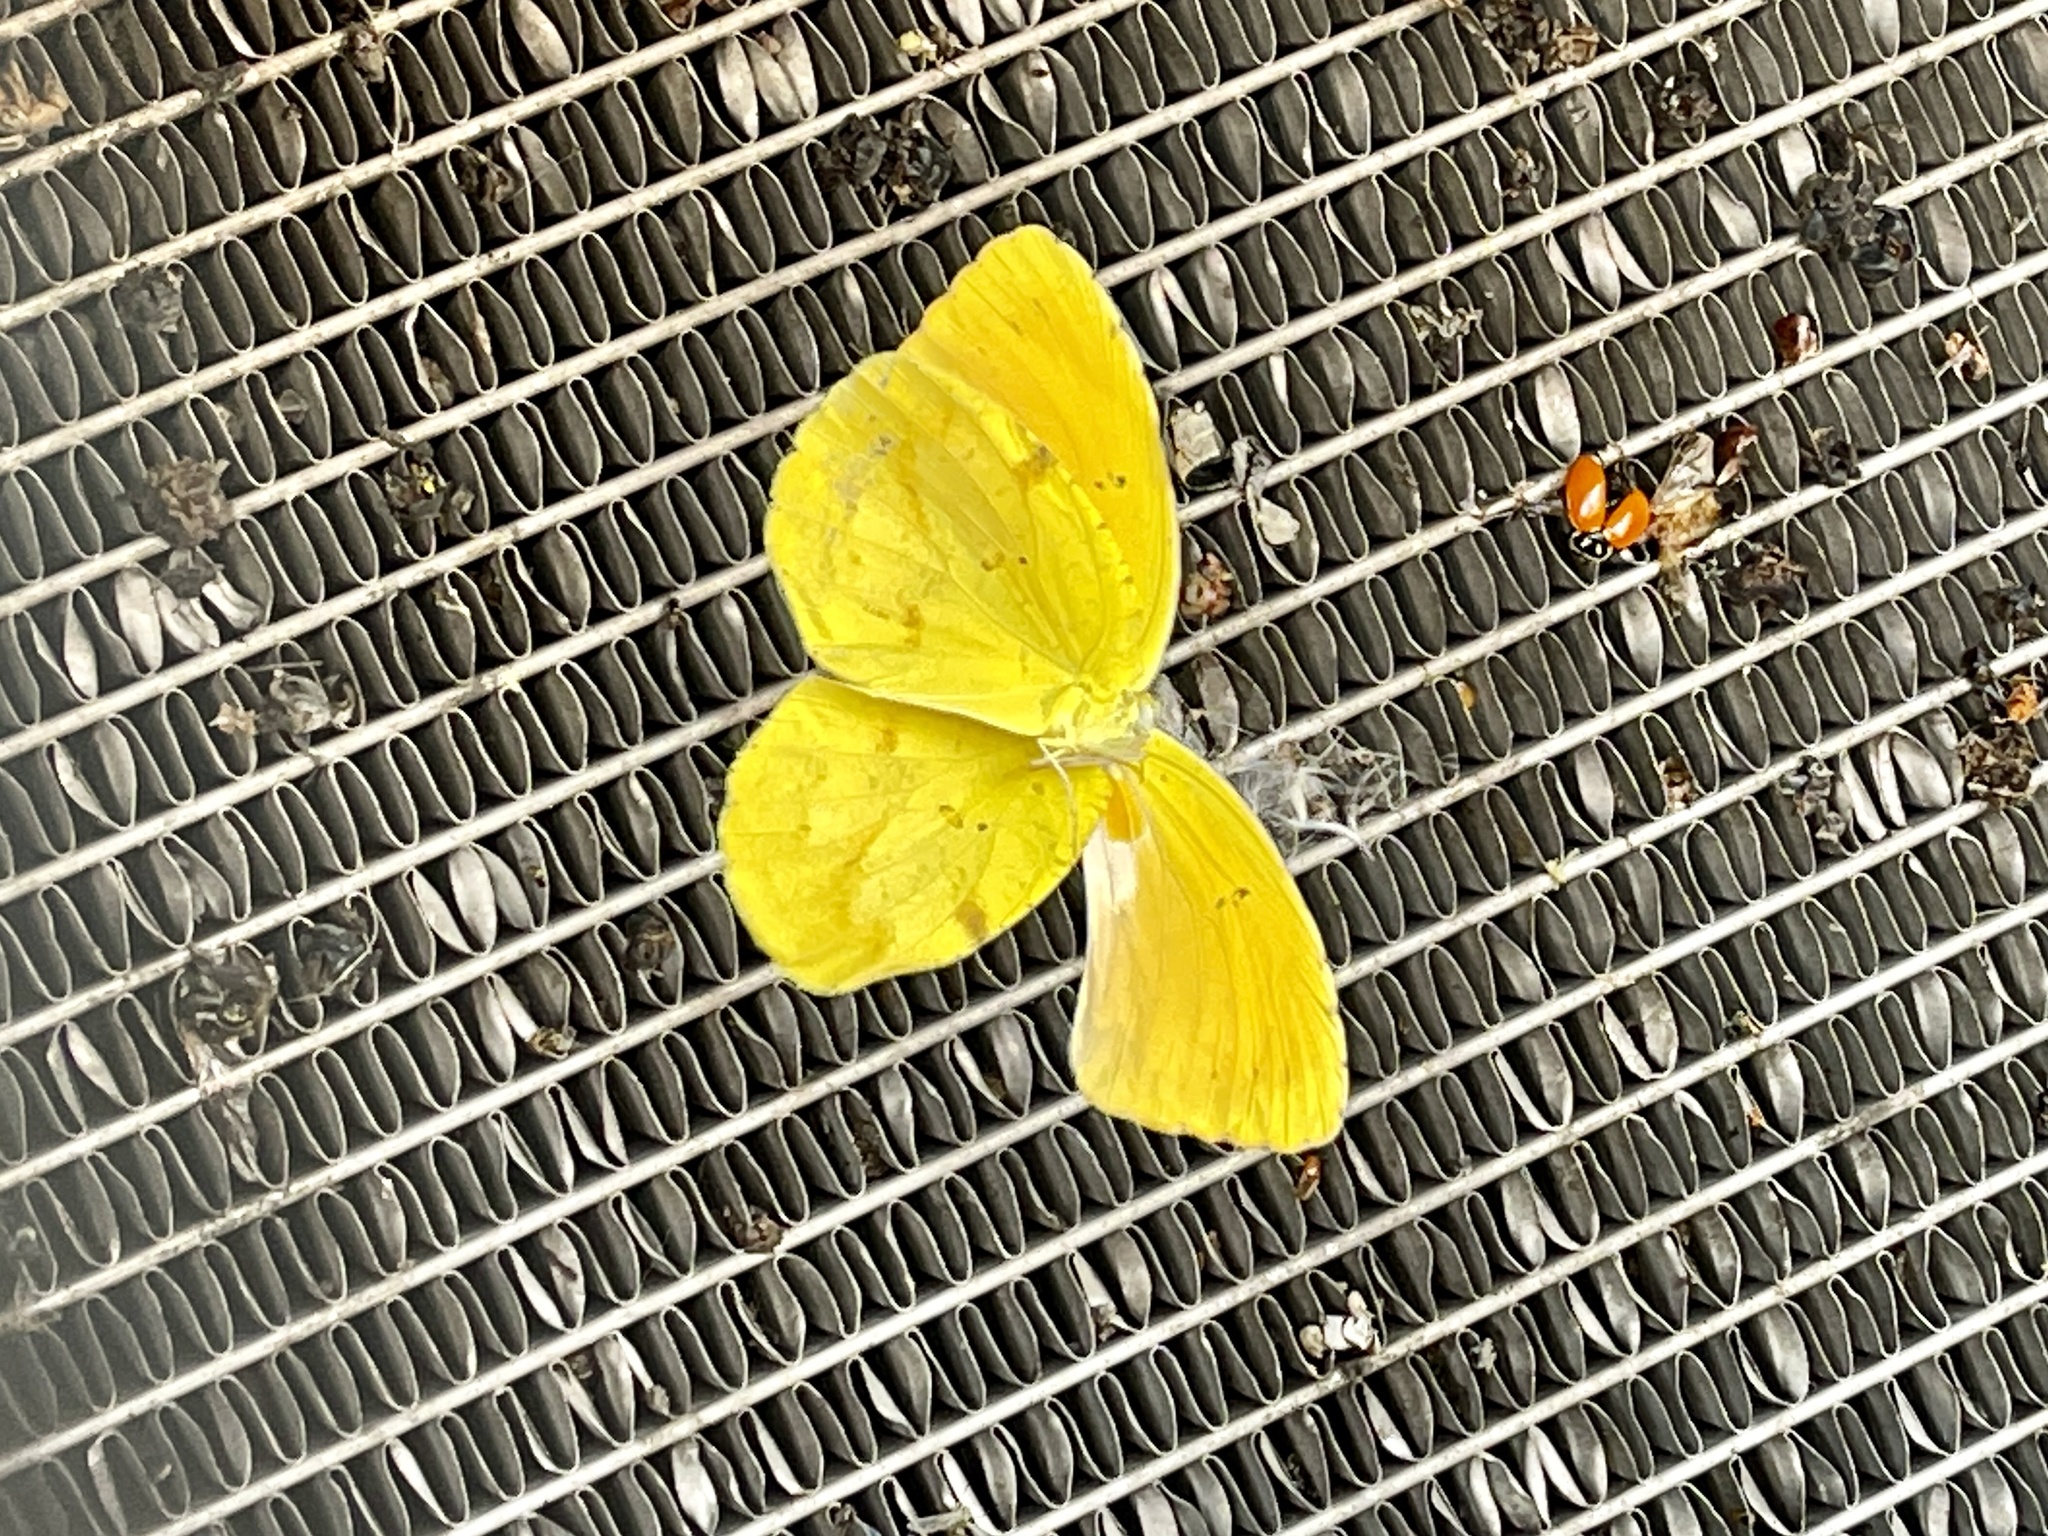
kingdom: Animalia
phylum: Arthropoda
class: Insecta
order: Lepidoptera
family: Pieridae
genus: Abaeis
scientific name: Abaeis nicippe
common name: Sleepy orange
